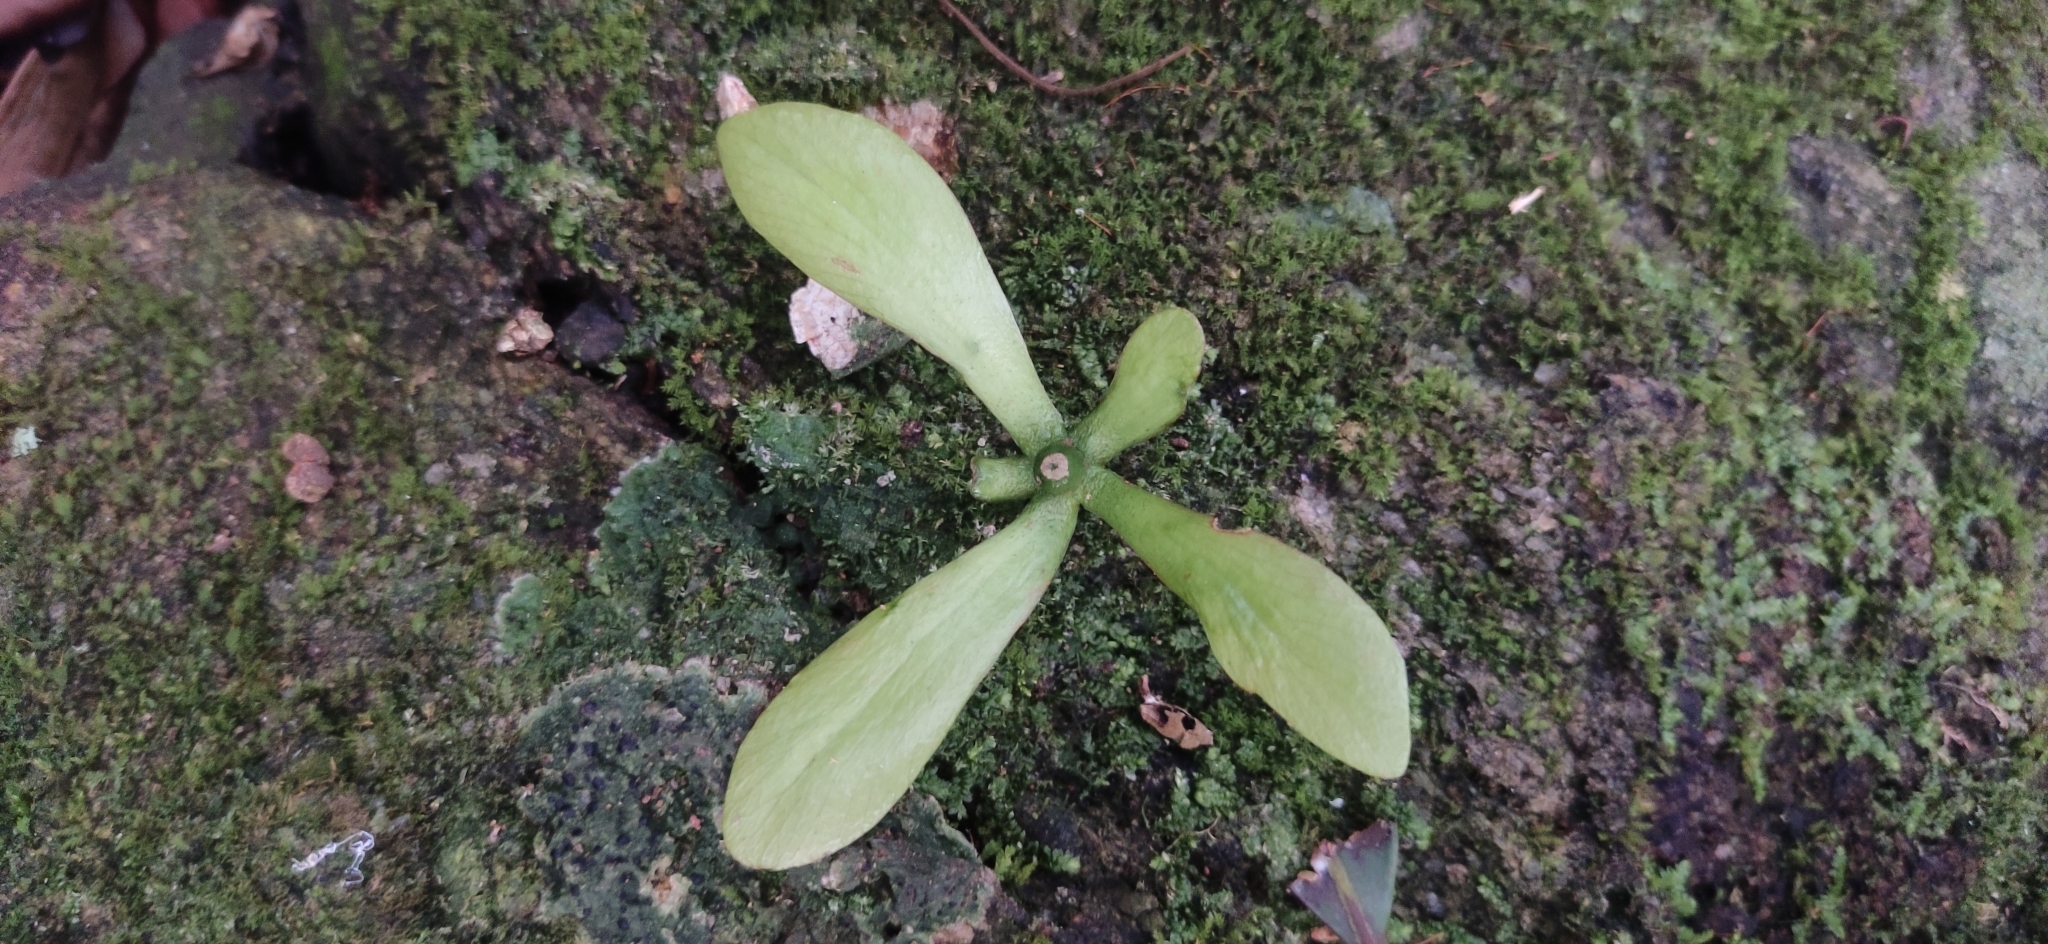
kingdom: Plantae
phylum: Tracheophyta
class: Magnoliopsida
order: Caryophyllales
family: Ancistrocladaceae
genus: Ancistrocladus
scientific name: Ancistrocladus heyneanus
